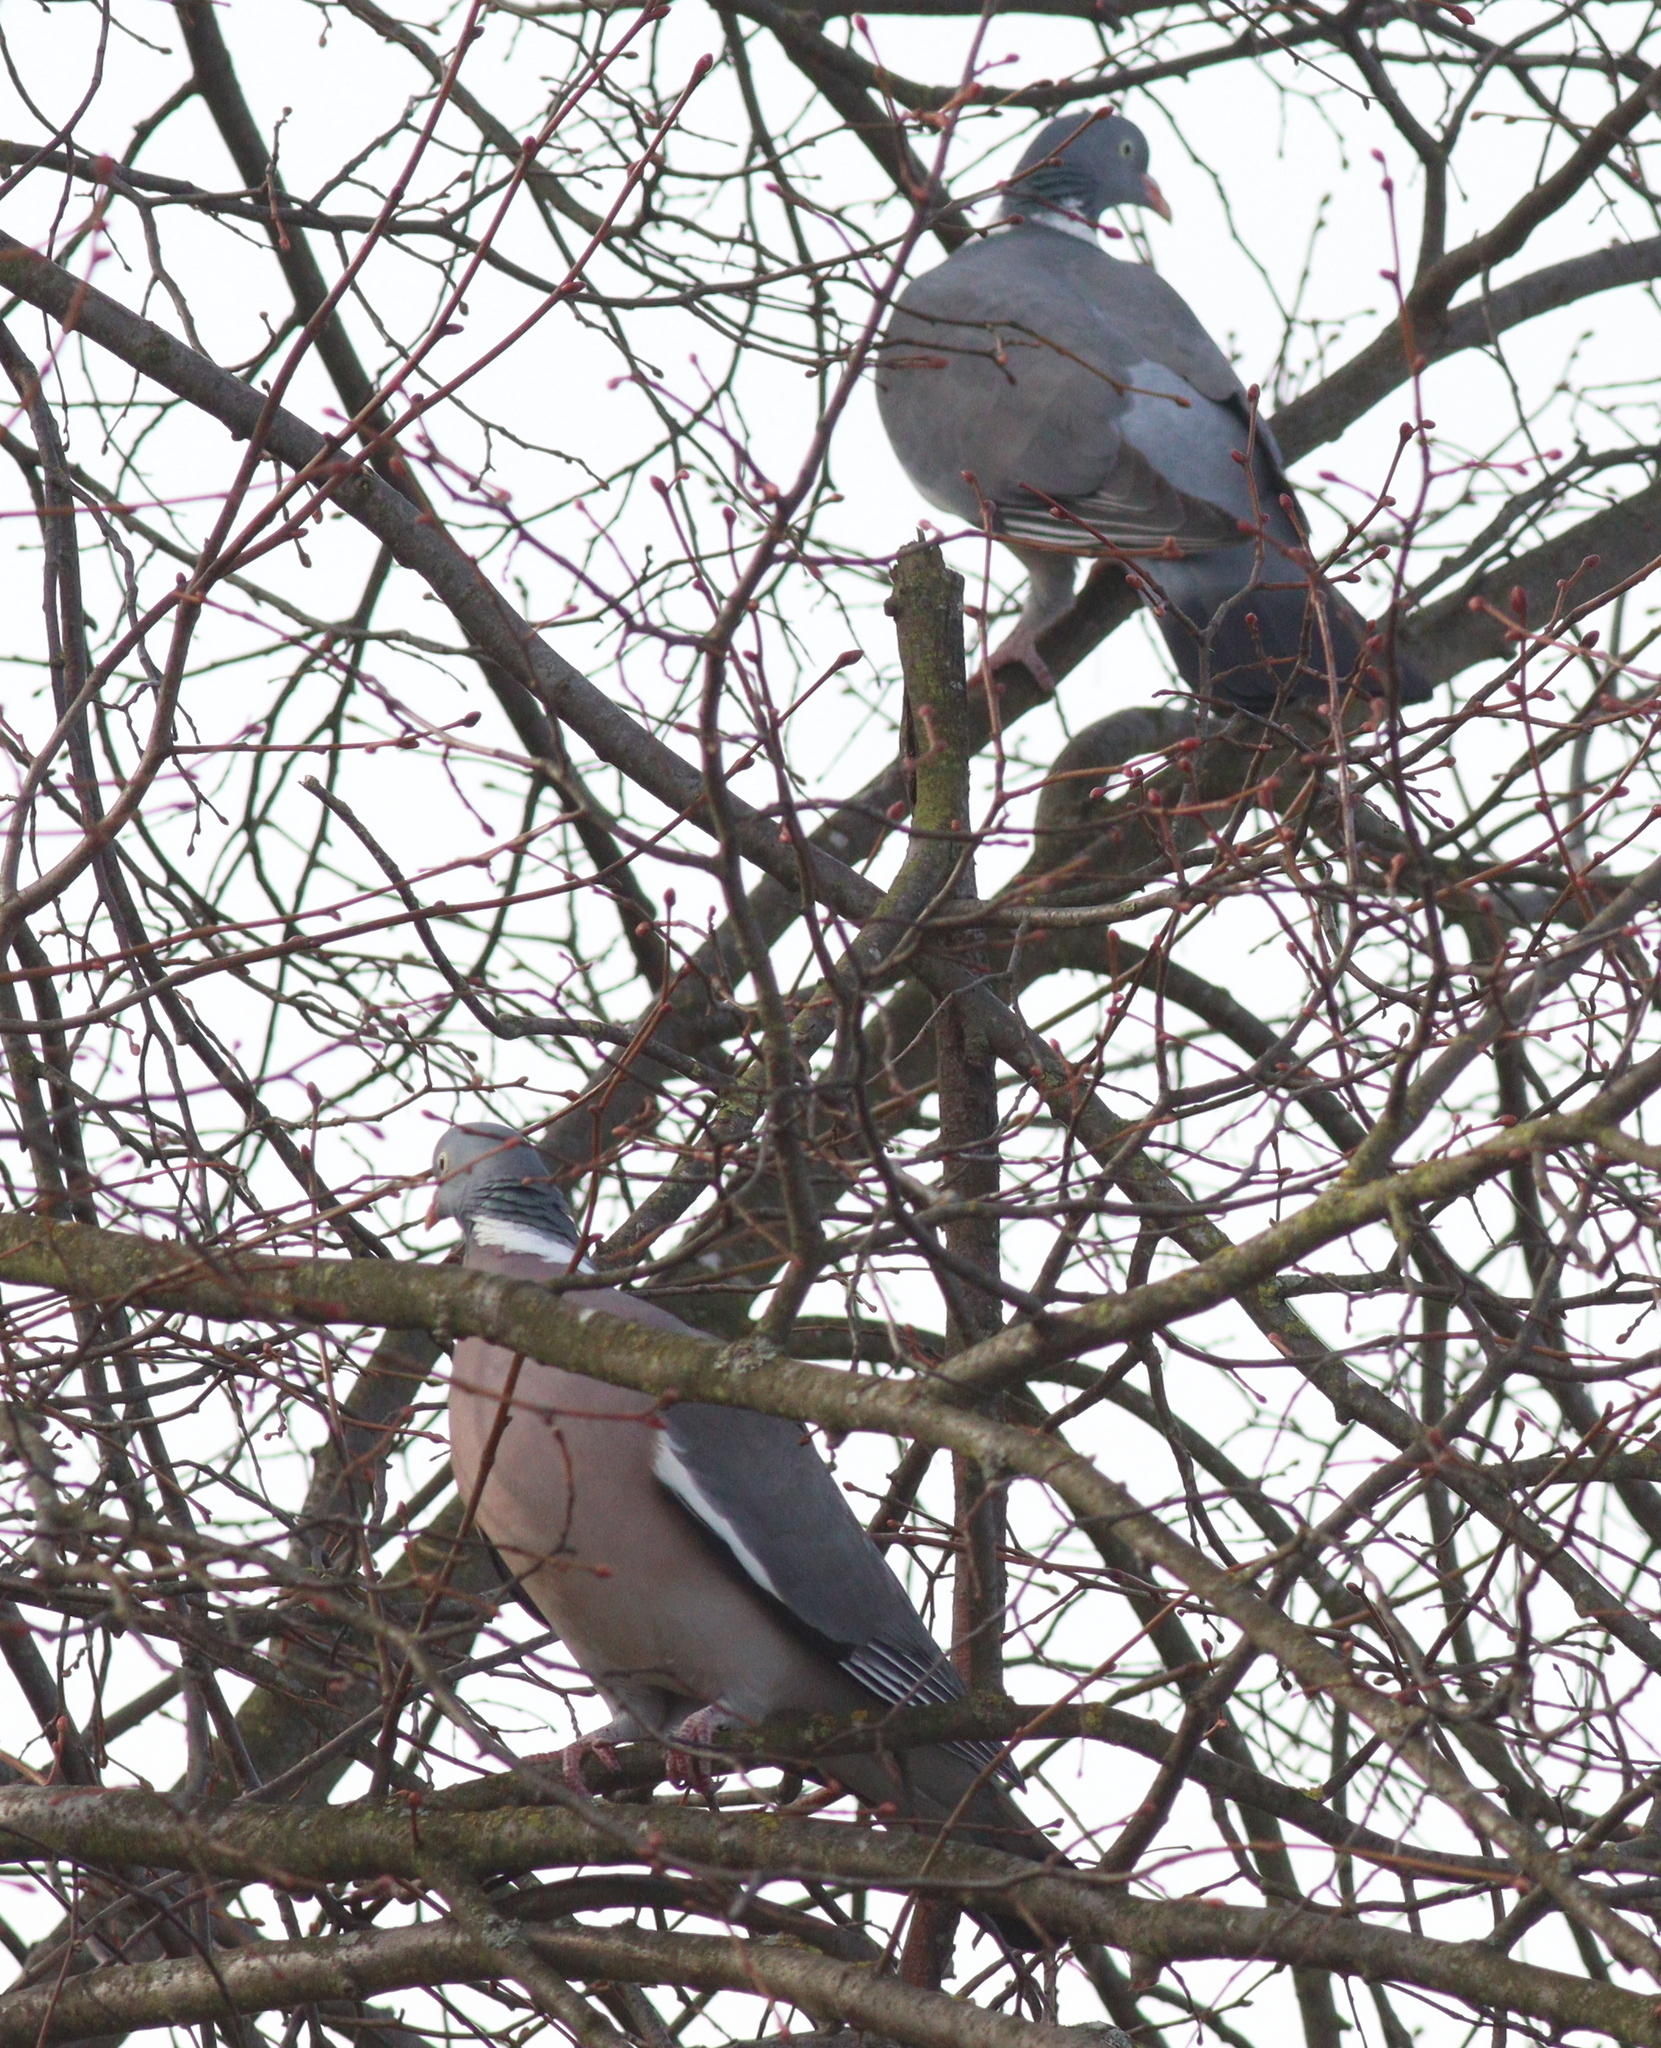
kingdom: Animalia
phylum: Chordata
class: Aves
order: Columbiformes
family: Columbidae
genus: Columba
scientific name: Columba palumbus
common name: Common wood pigeon
